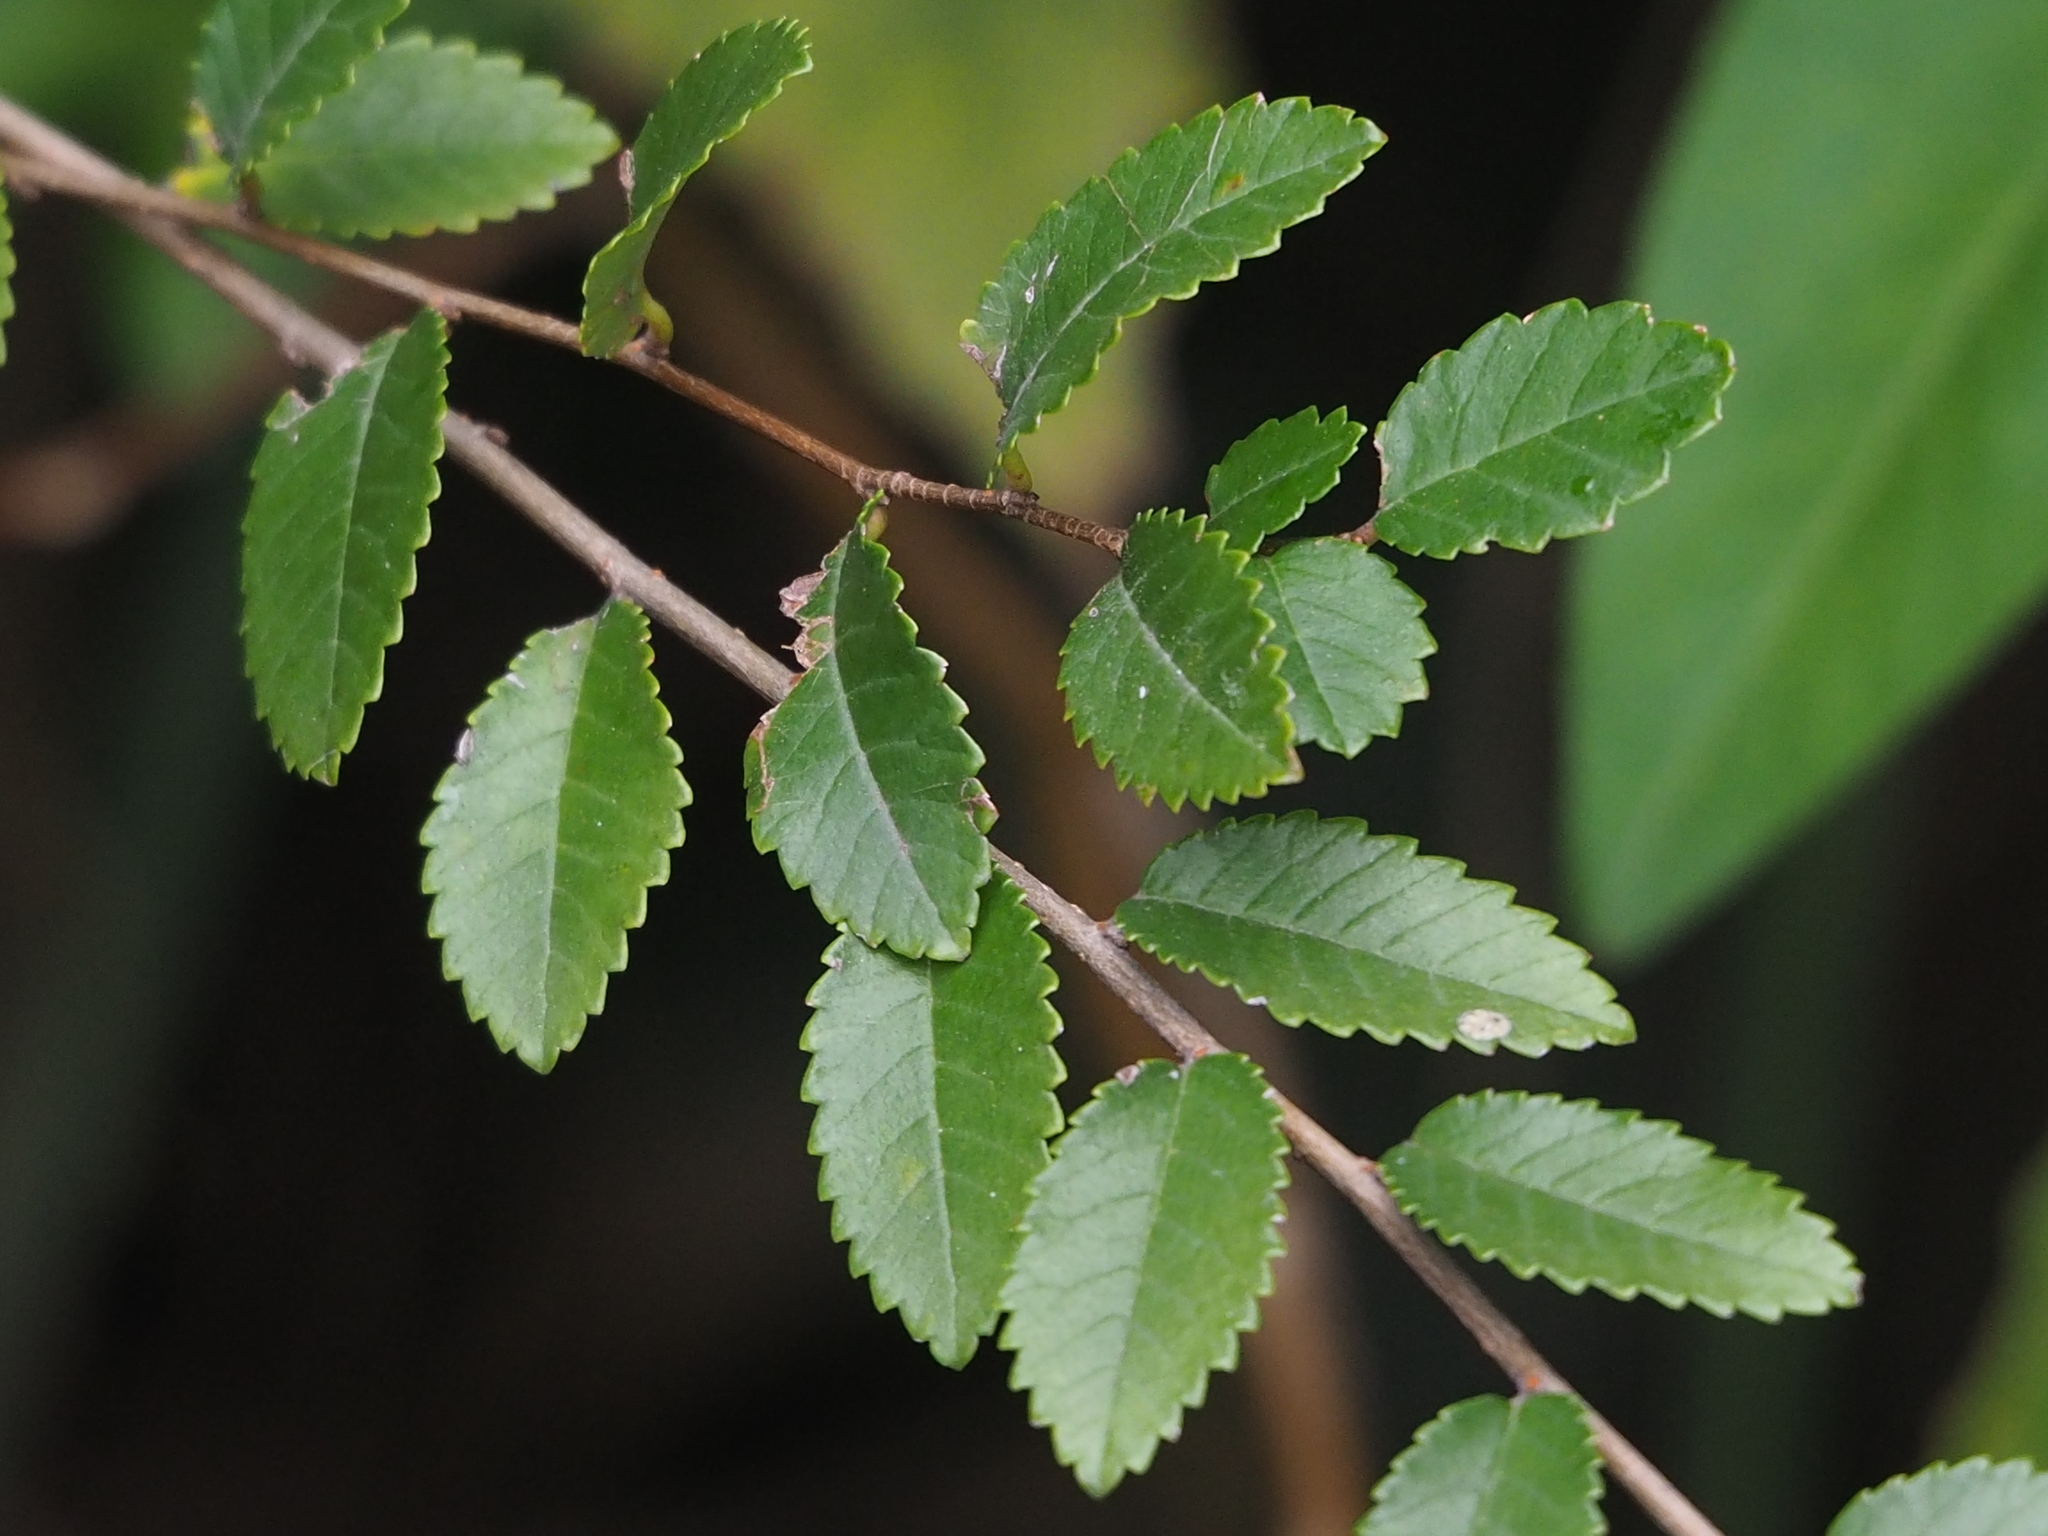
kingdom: Plantae
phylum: Tracheophyta
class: Magnoliopsida
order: Rosales
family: Ulmaceae
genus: Ulmus
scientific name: Ulmus parvifolia
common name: Chinese elm
